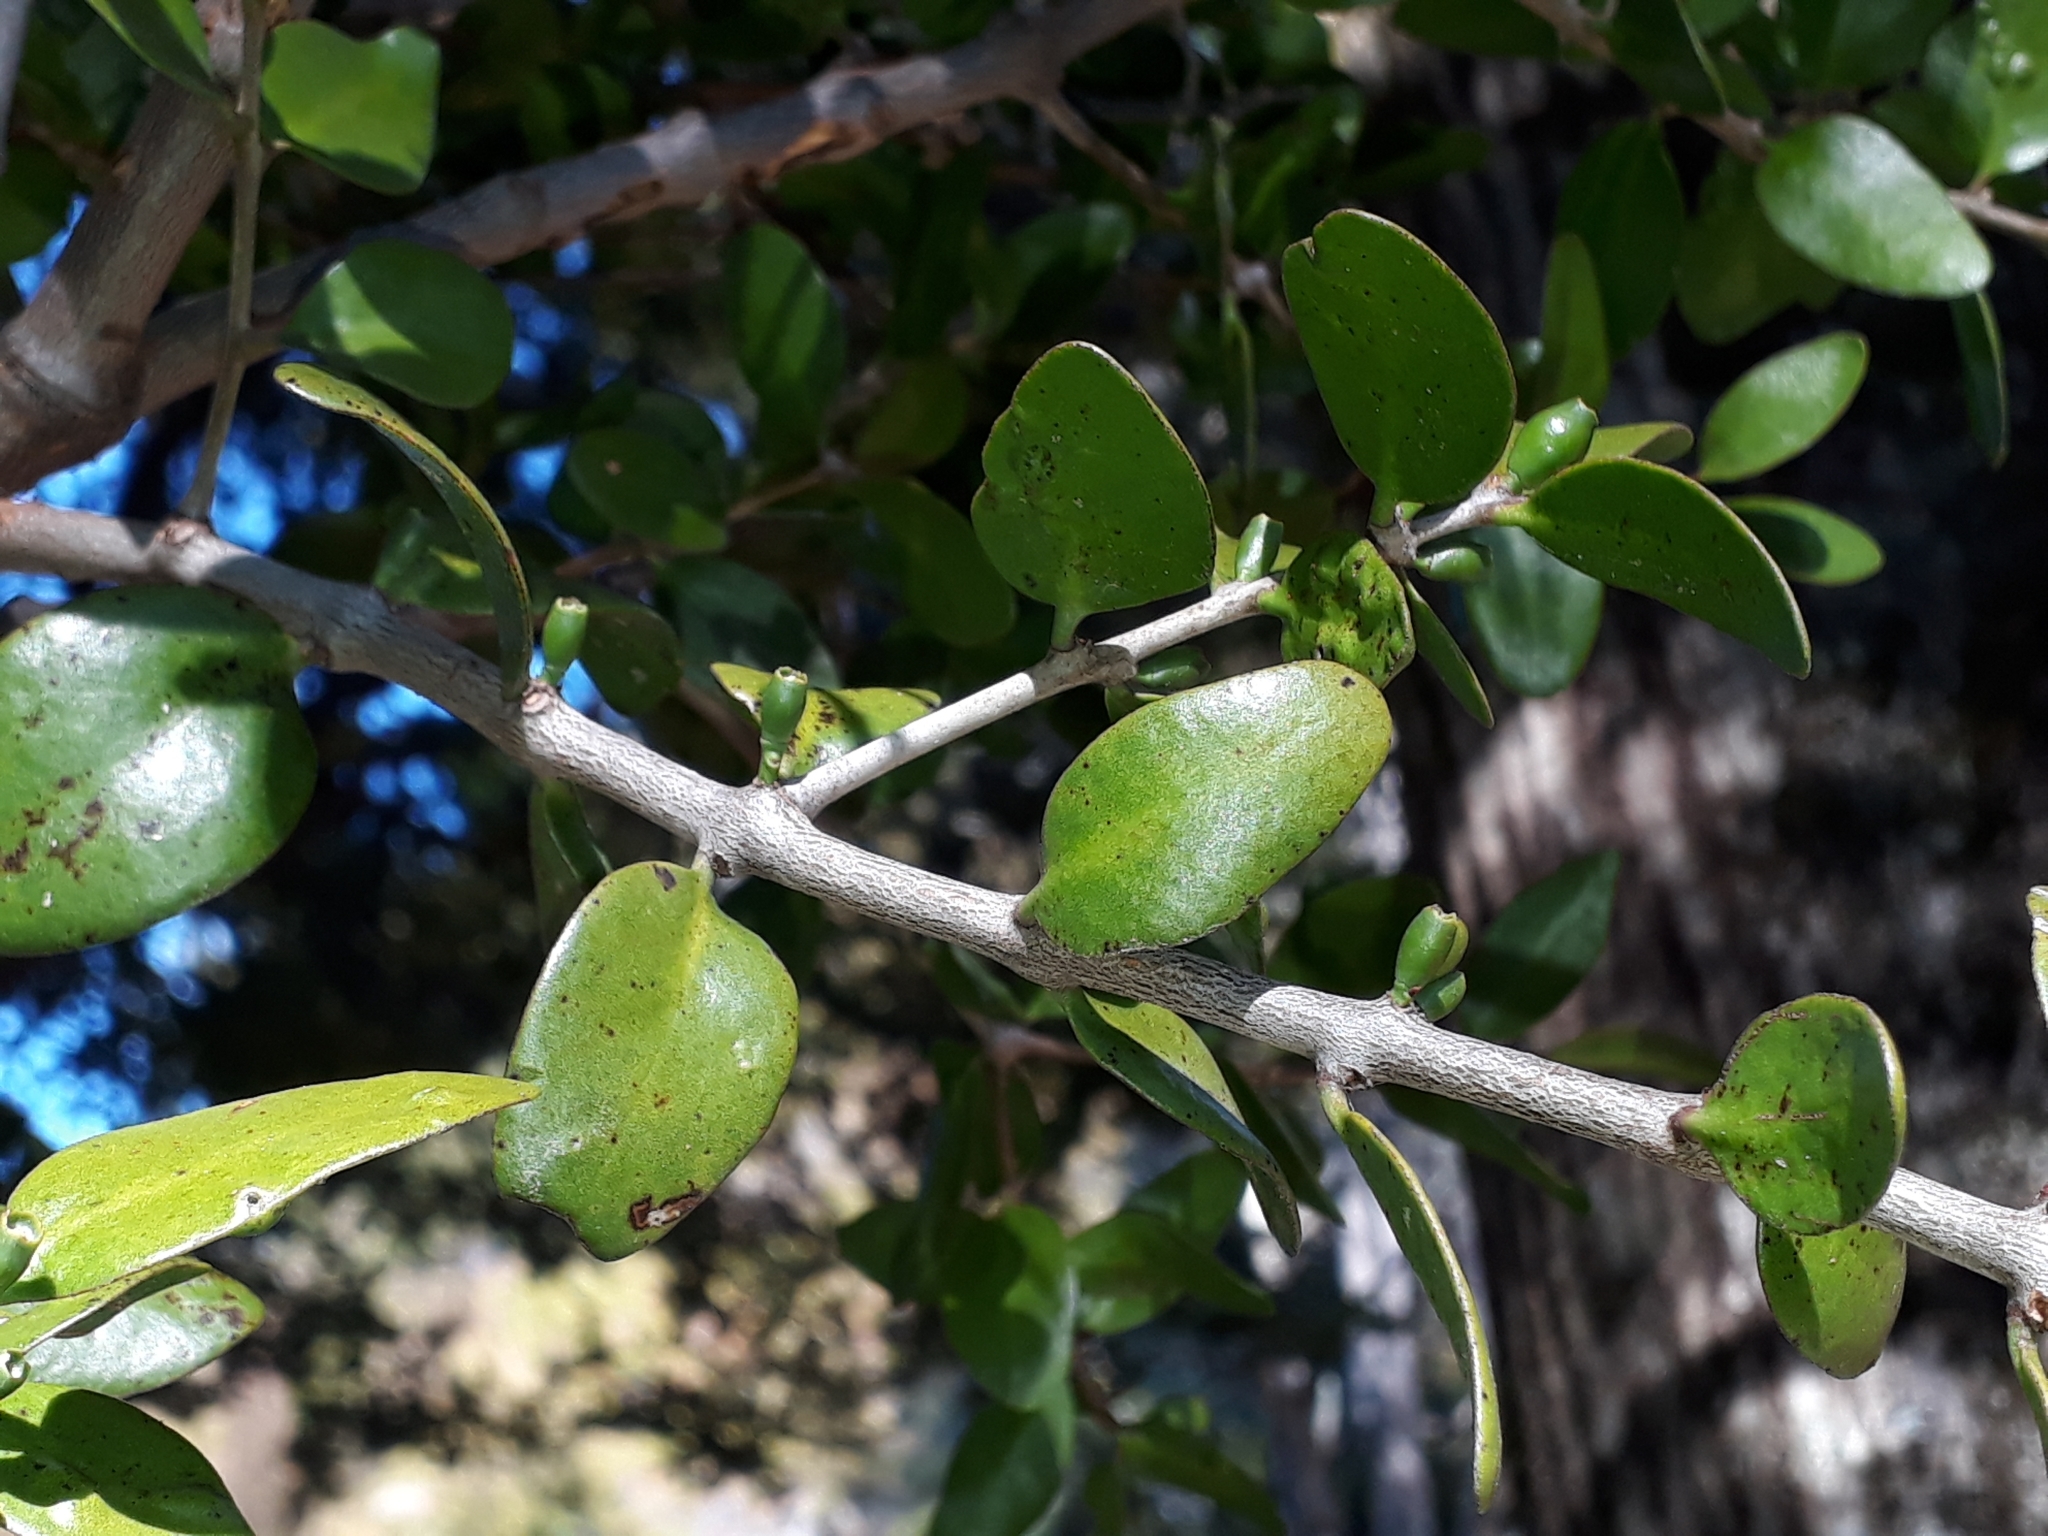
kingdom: Plantae
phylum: Tracheophyta
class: Magnoliopsida
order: Santalales
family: Loranthaceae
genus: Peraxilla
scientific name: Peraxilla tetrapetala
